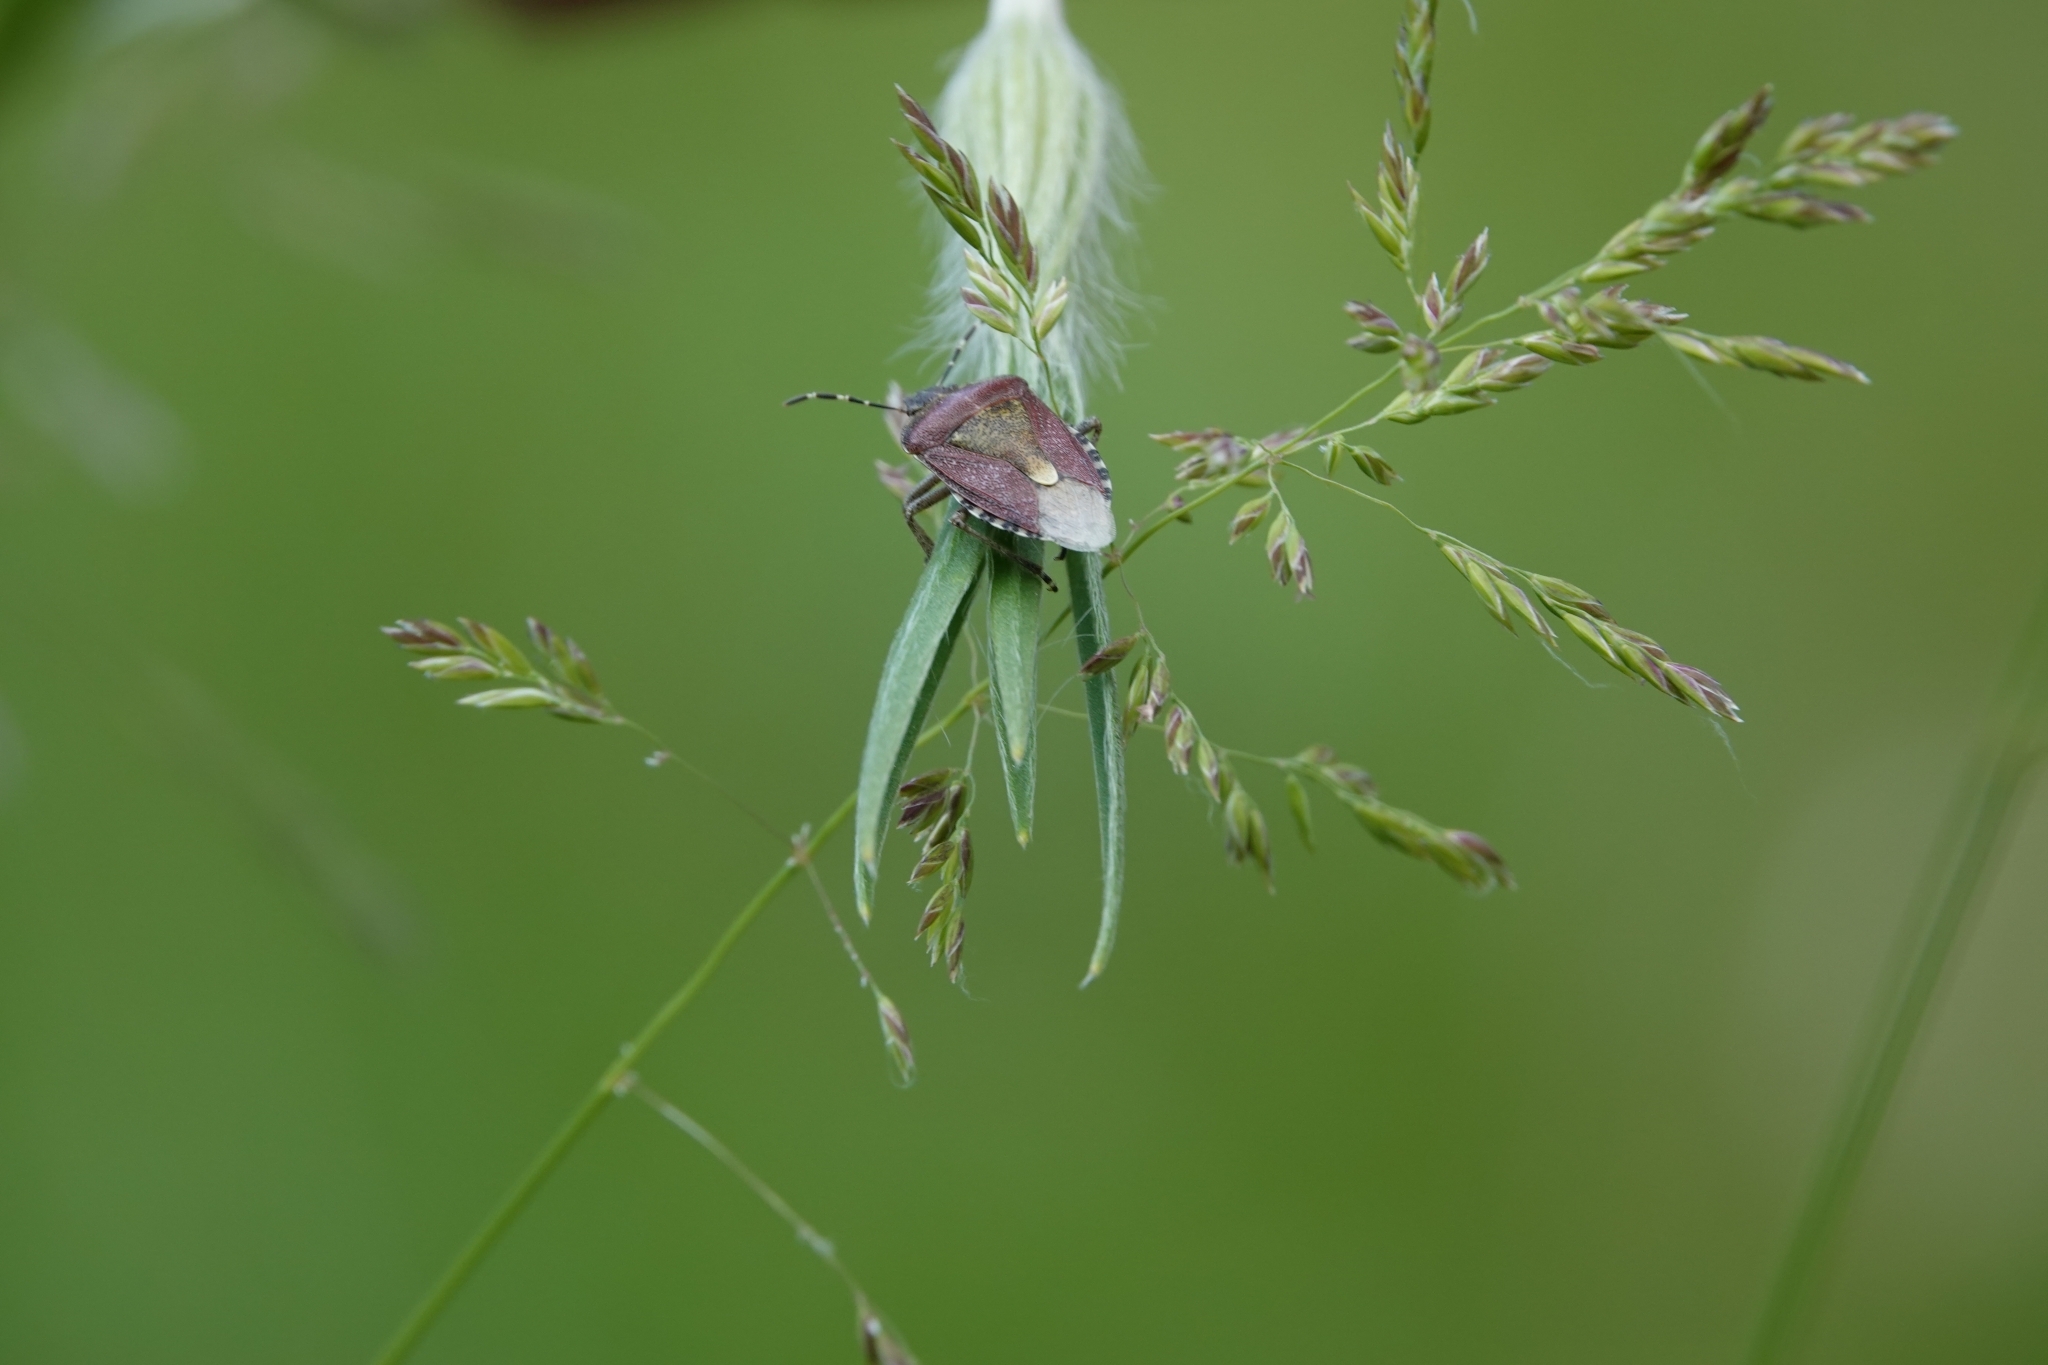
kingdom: Animalia
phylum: Arthropoda
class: Insecta
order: Hemiptera
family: Pentatomidae
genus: Dolycoris
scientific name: Dolycoris baccarum
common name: Sloe bug
